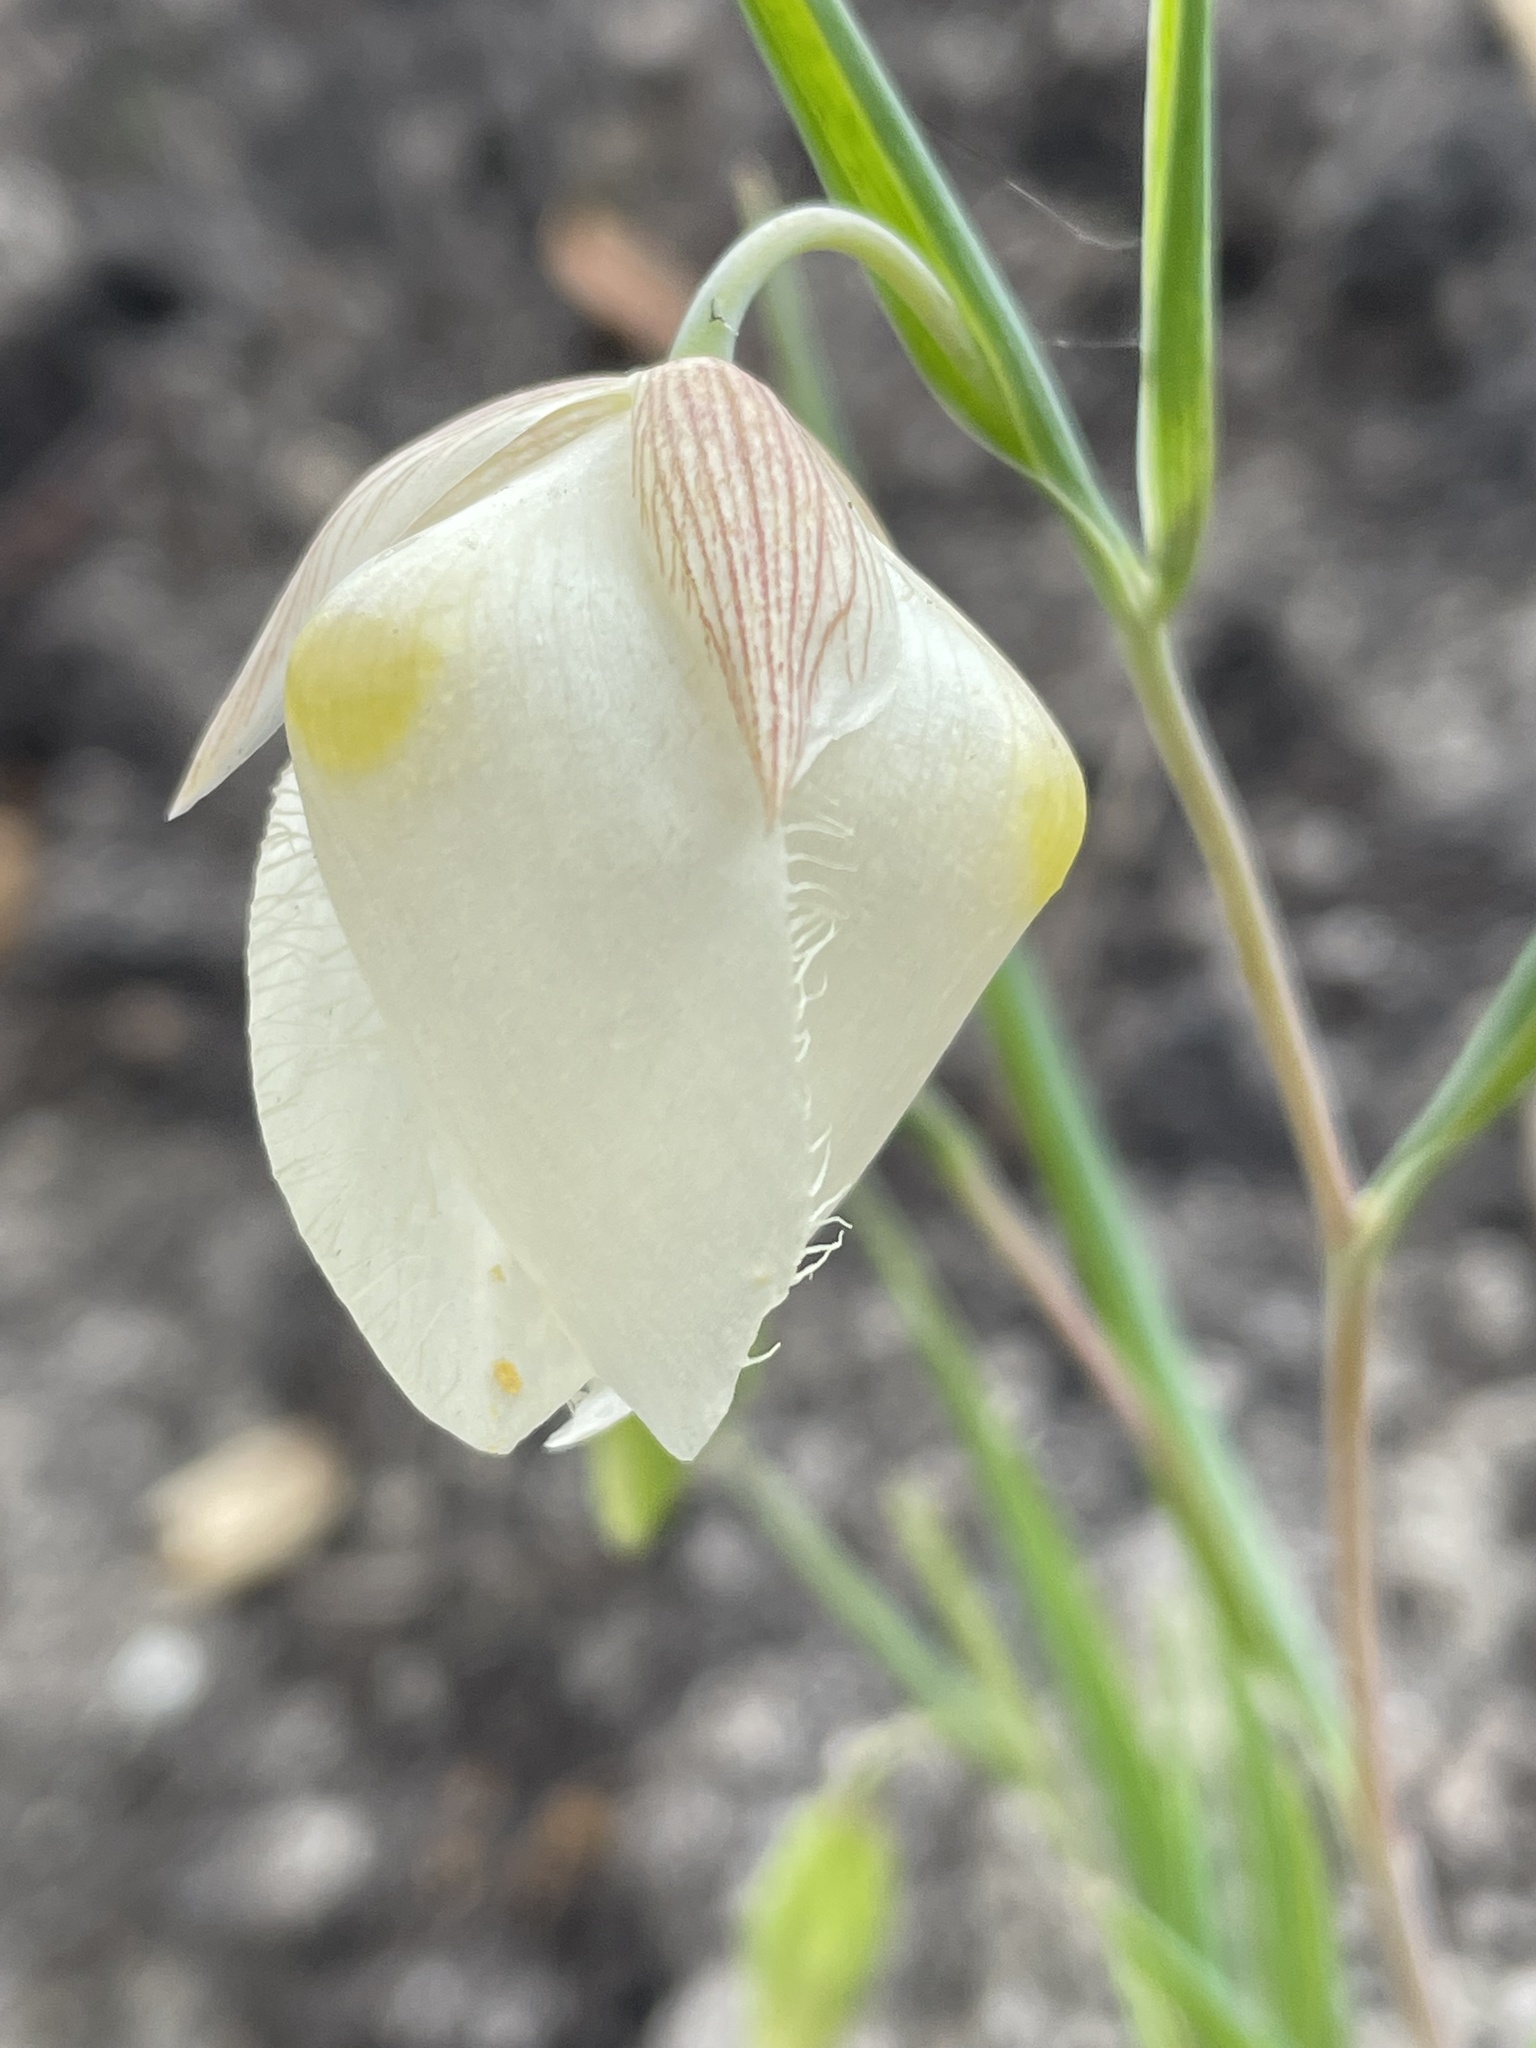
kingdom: Plantae
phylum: Tracheophyta
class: Liliopsida
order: Liliales
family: Liliaceae
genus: Calochortus
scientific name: Calochortus albus
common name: Fairy-lantern
